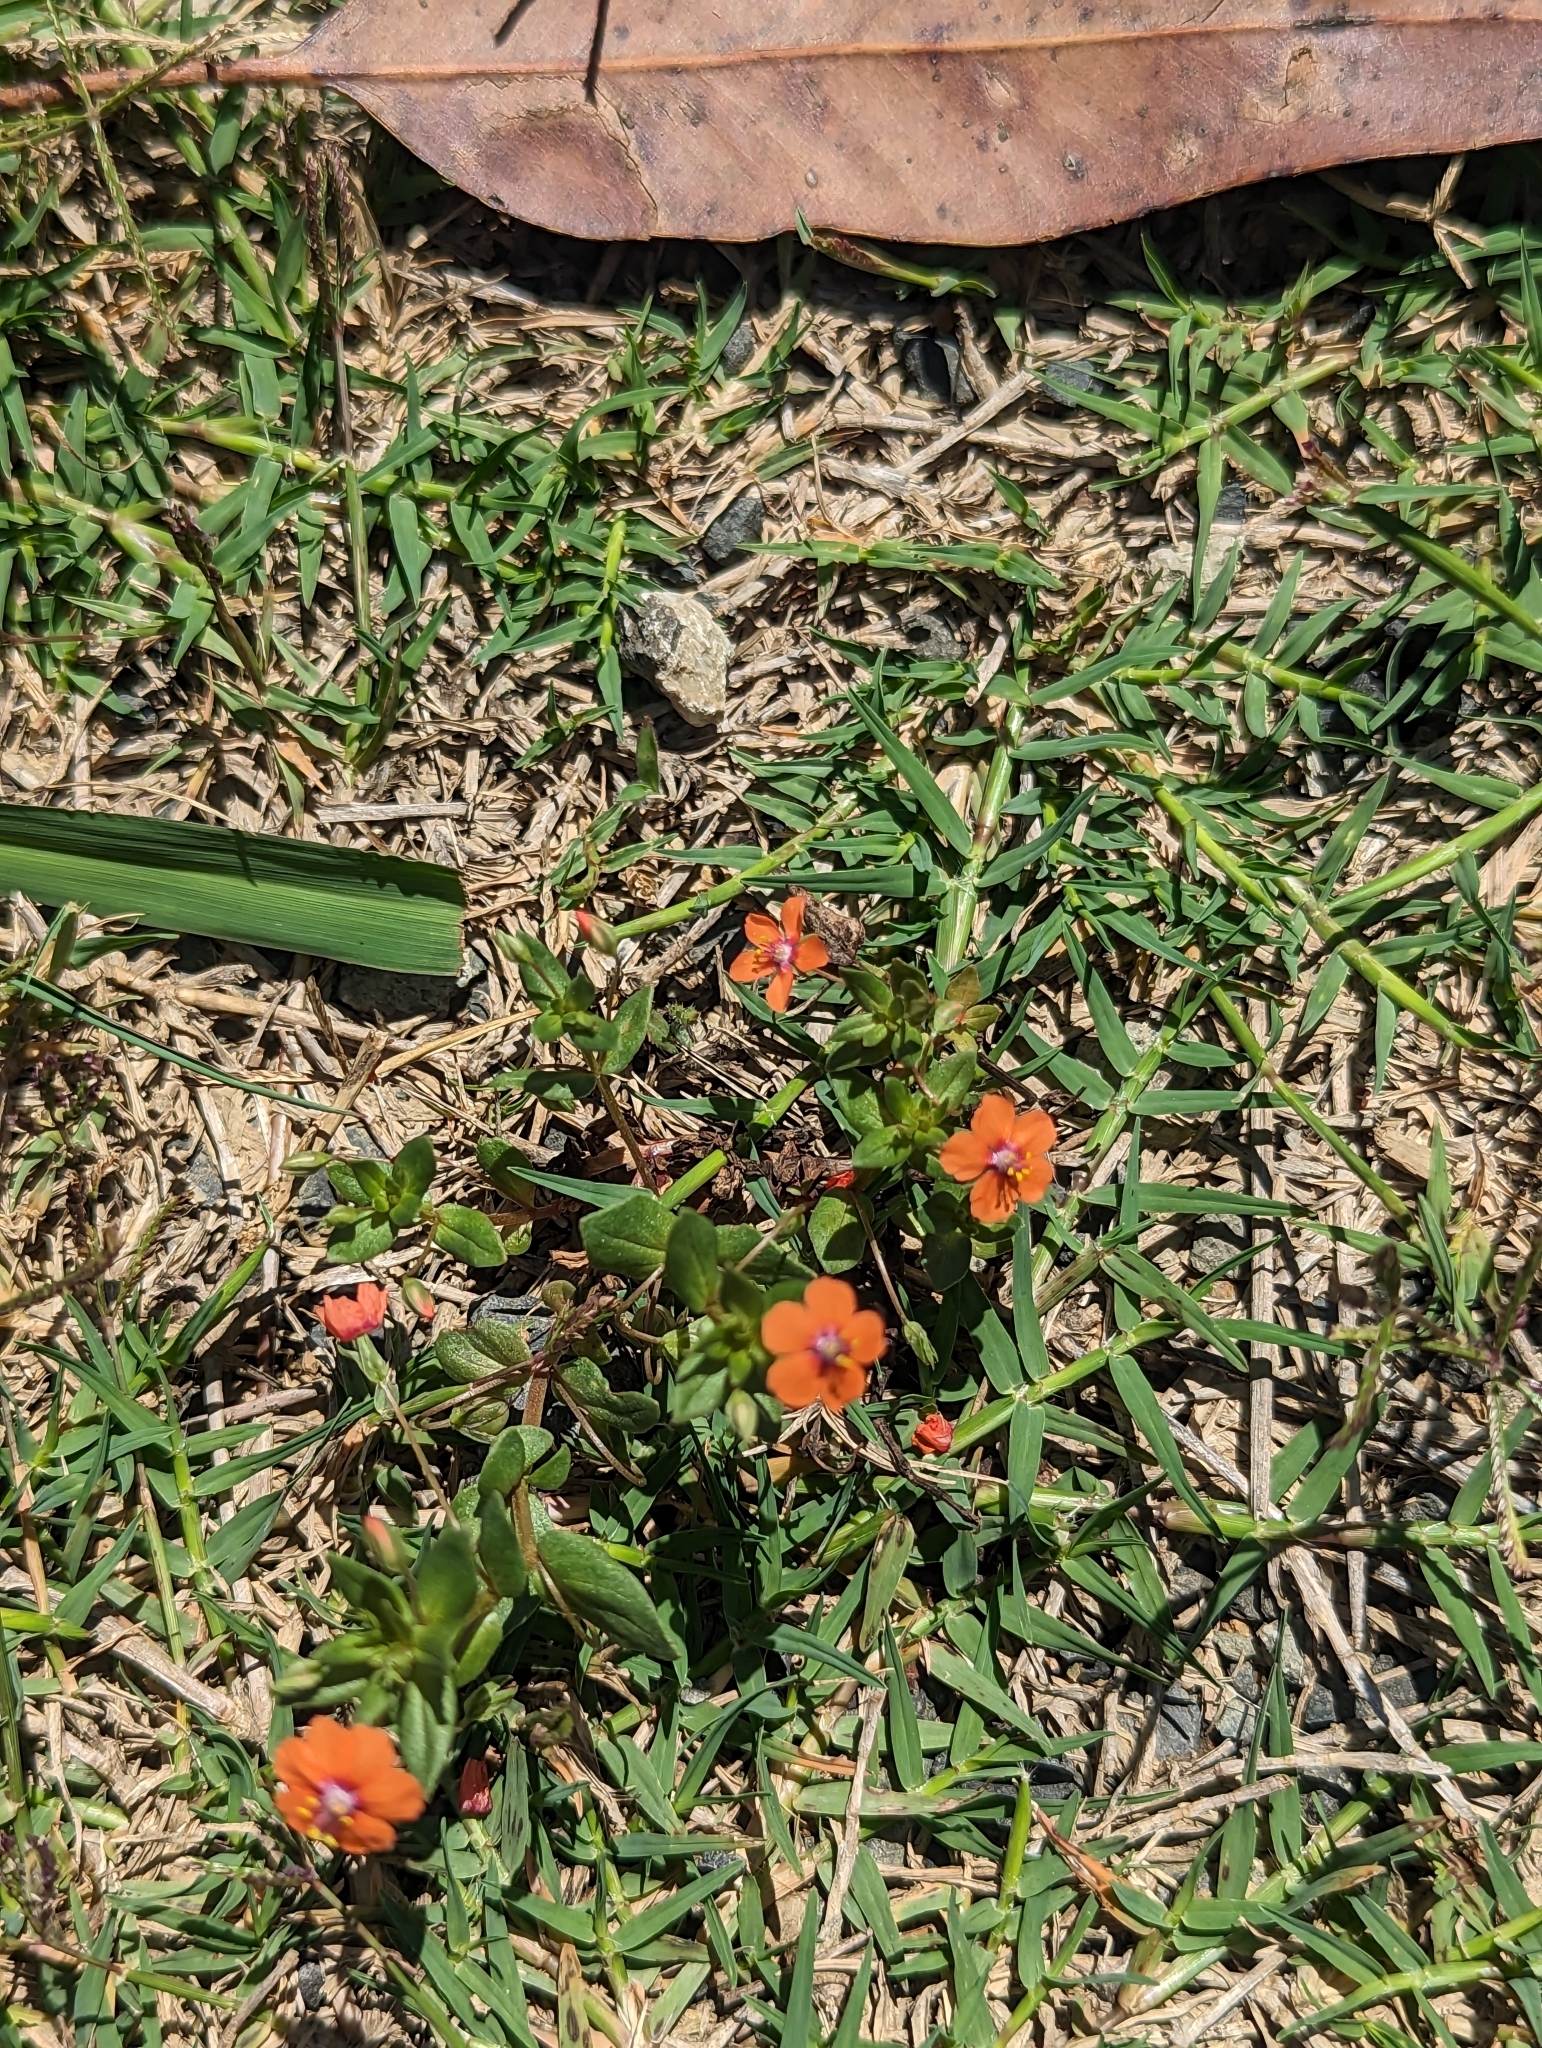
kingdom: Plantae
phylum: Tracheophyta
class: Magnoliopsida
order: Ericales
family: Primulaceae
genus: Lysimachia
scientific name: Lysimachia arvensis
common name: Scarlet pimpernel
